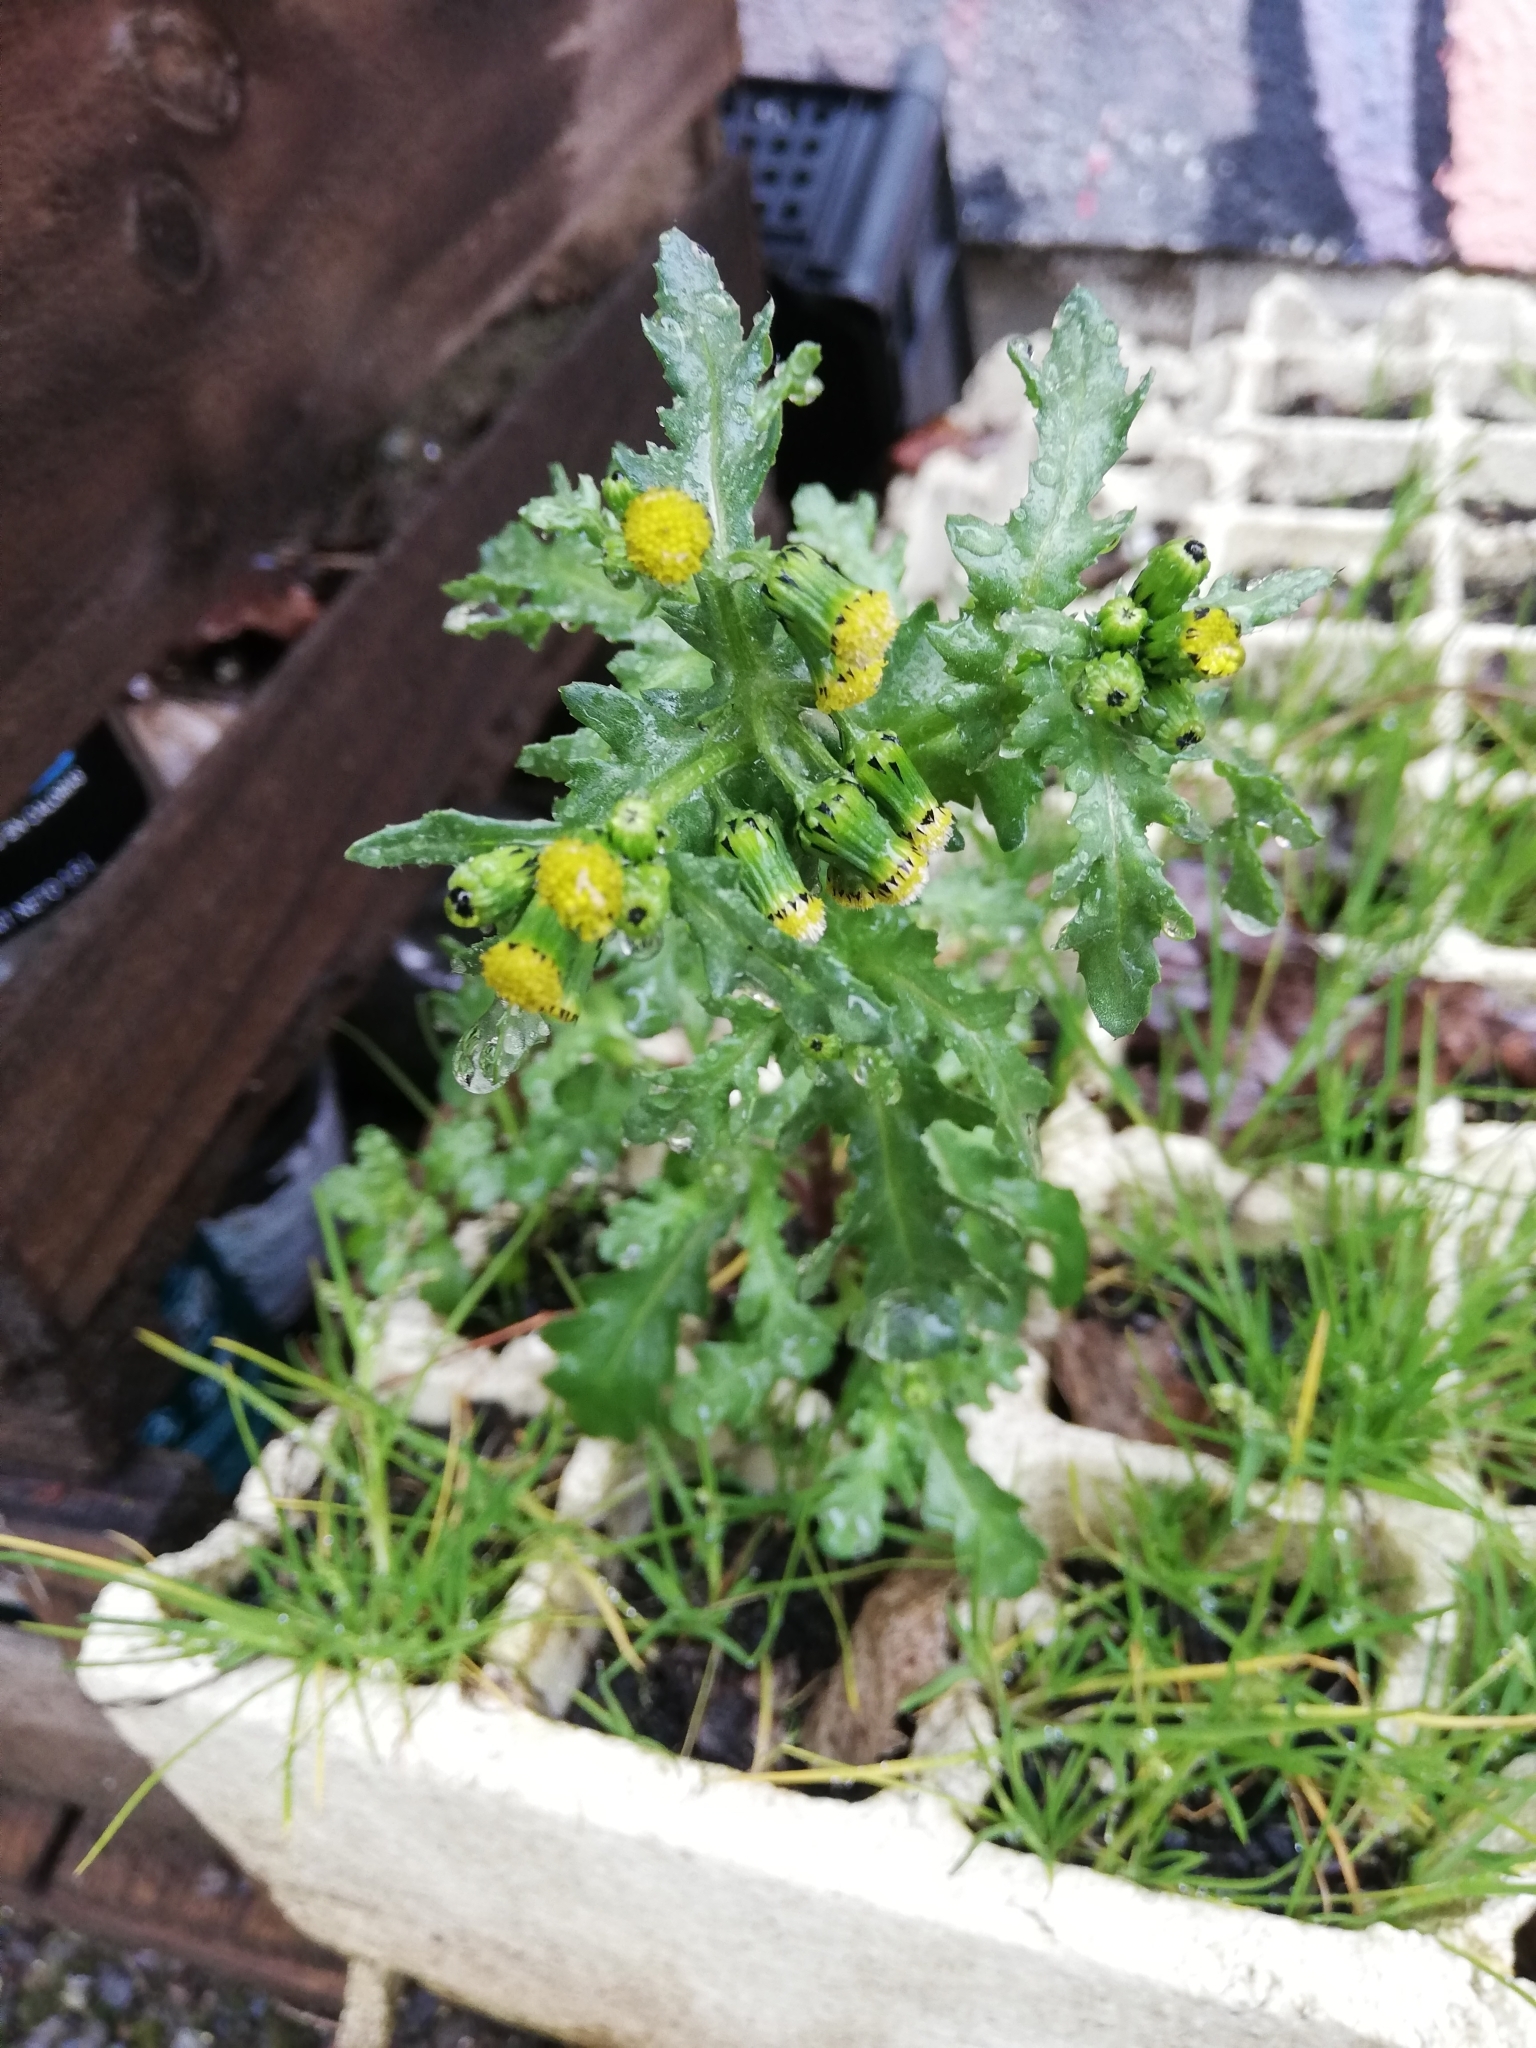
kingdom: Plantae
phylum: Tracheophyta
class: Magnoliopsida
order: Asterales
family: Asteraceae
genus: Senecio
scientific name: Senecio vulgaris
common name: Old-man-in-the-spring
